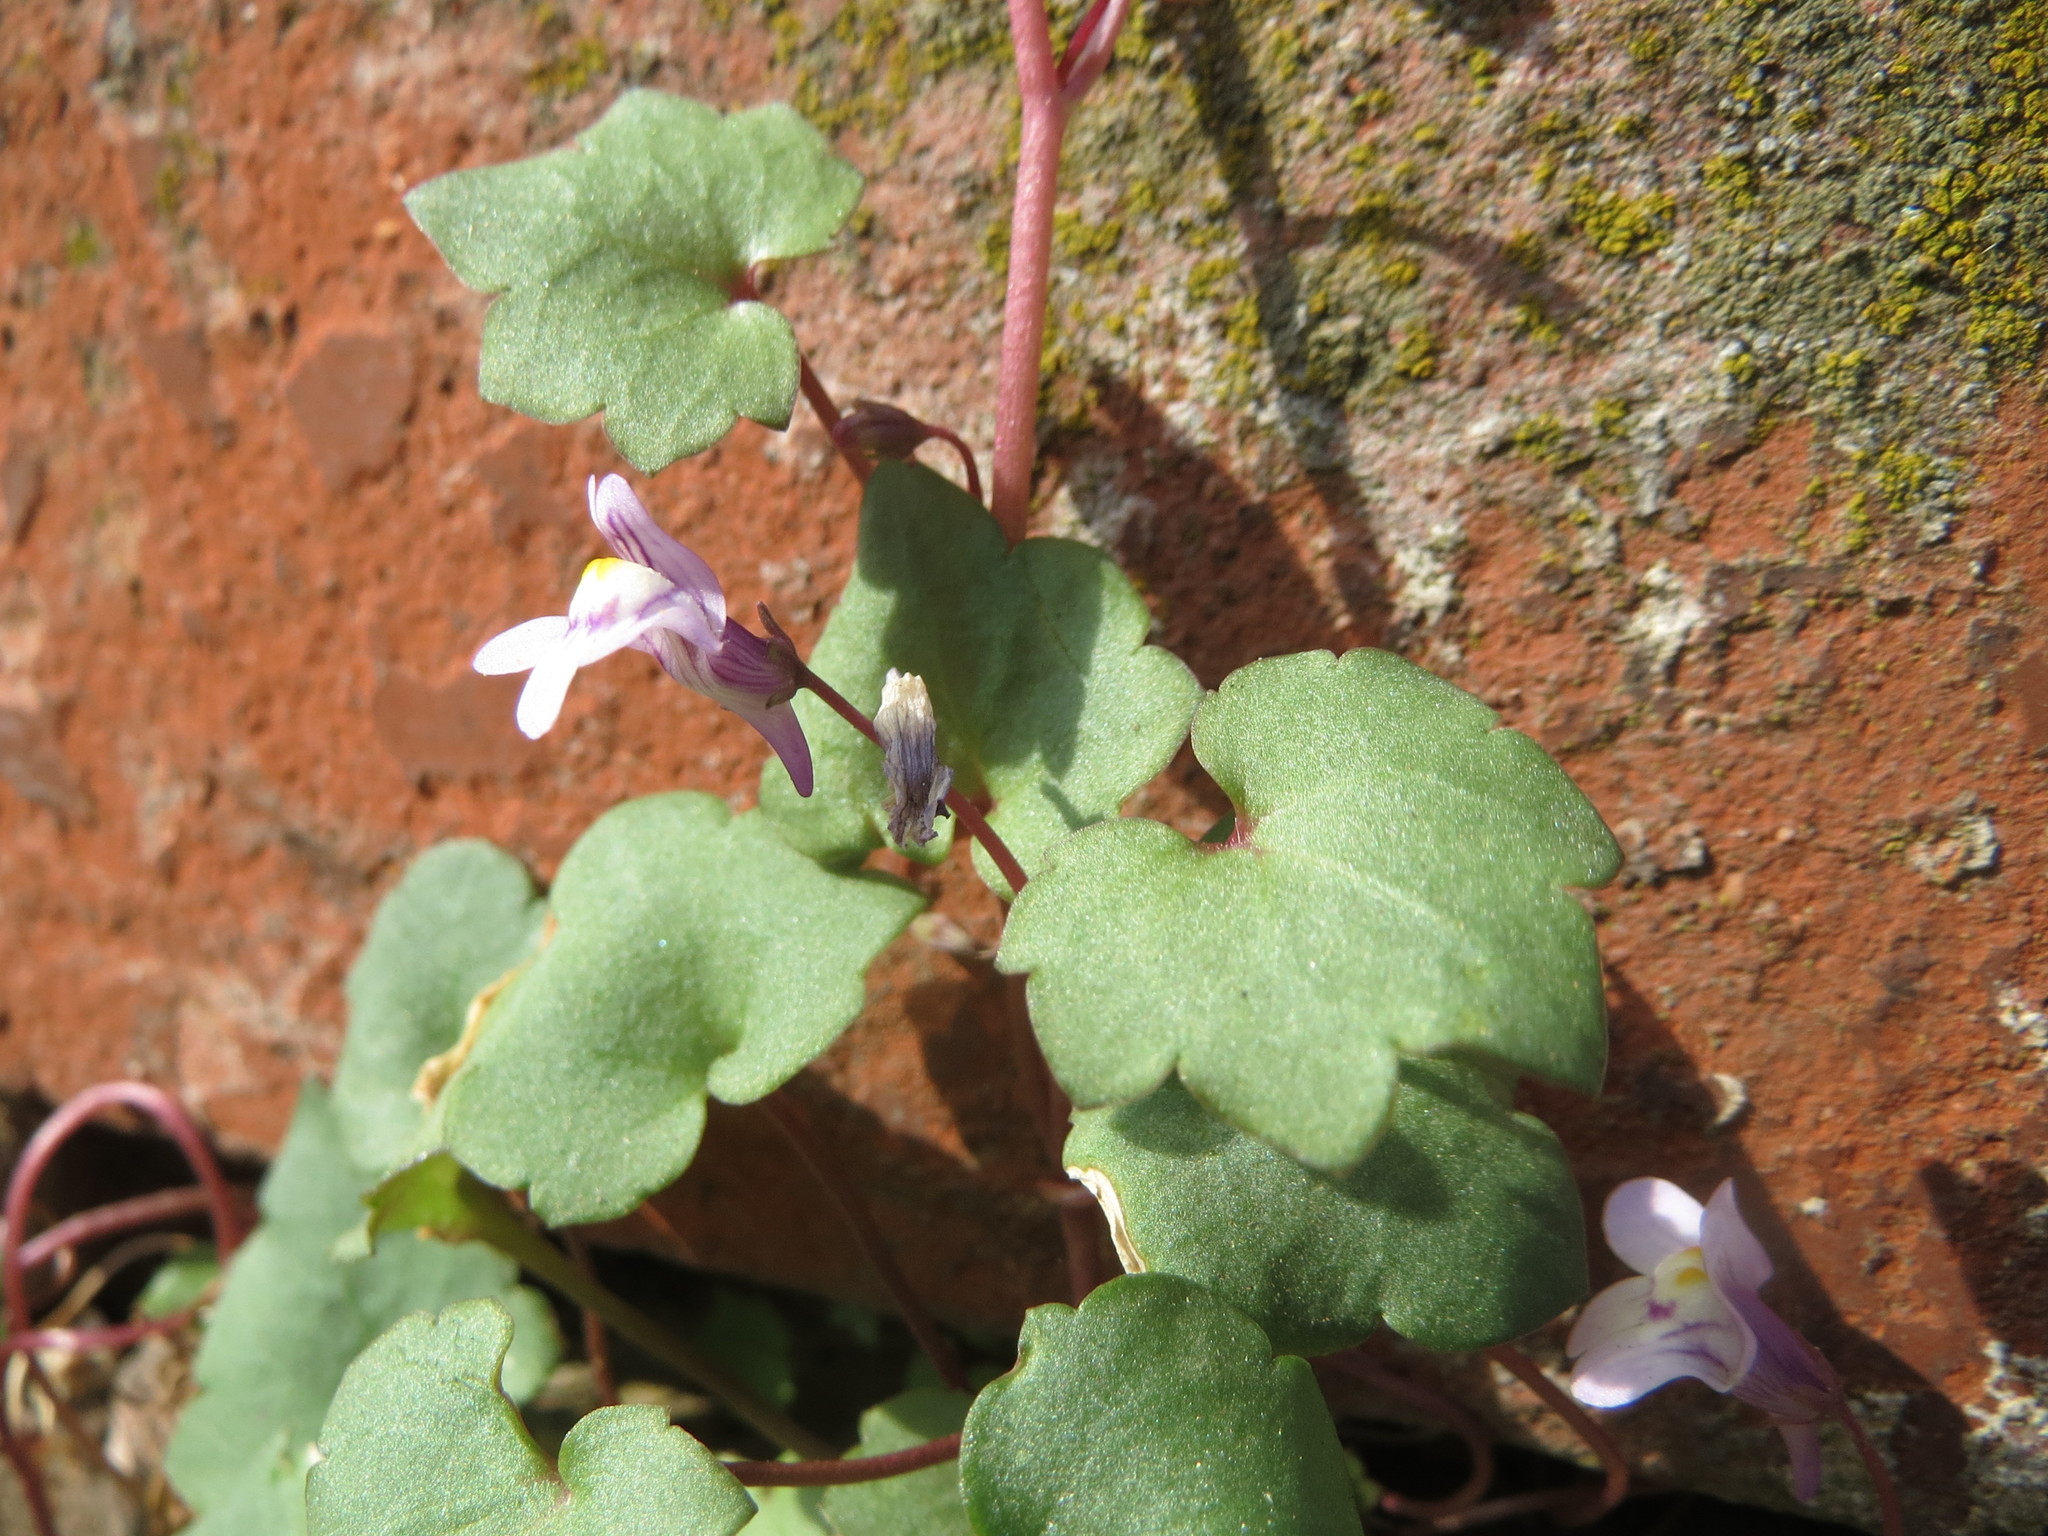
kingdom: Plantae
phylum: Tracheophyta
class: Magnoliopsida
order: Lamiales
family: Plantaginaceae
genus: Cymbalaria
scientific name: Cymbalaria muralis
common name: Ivy-leaved toadflax
